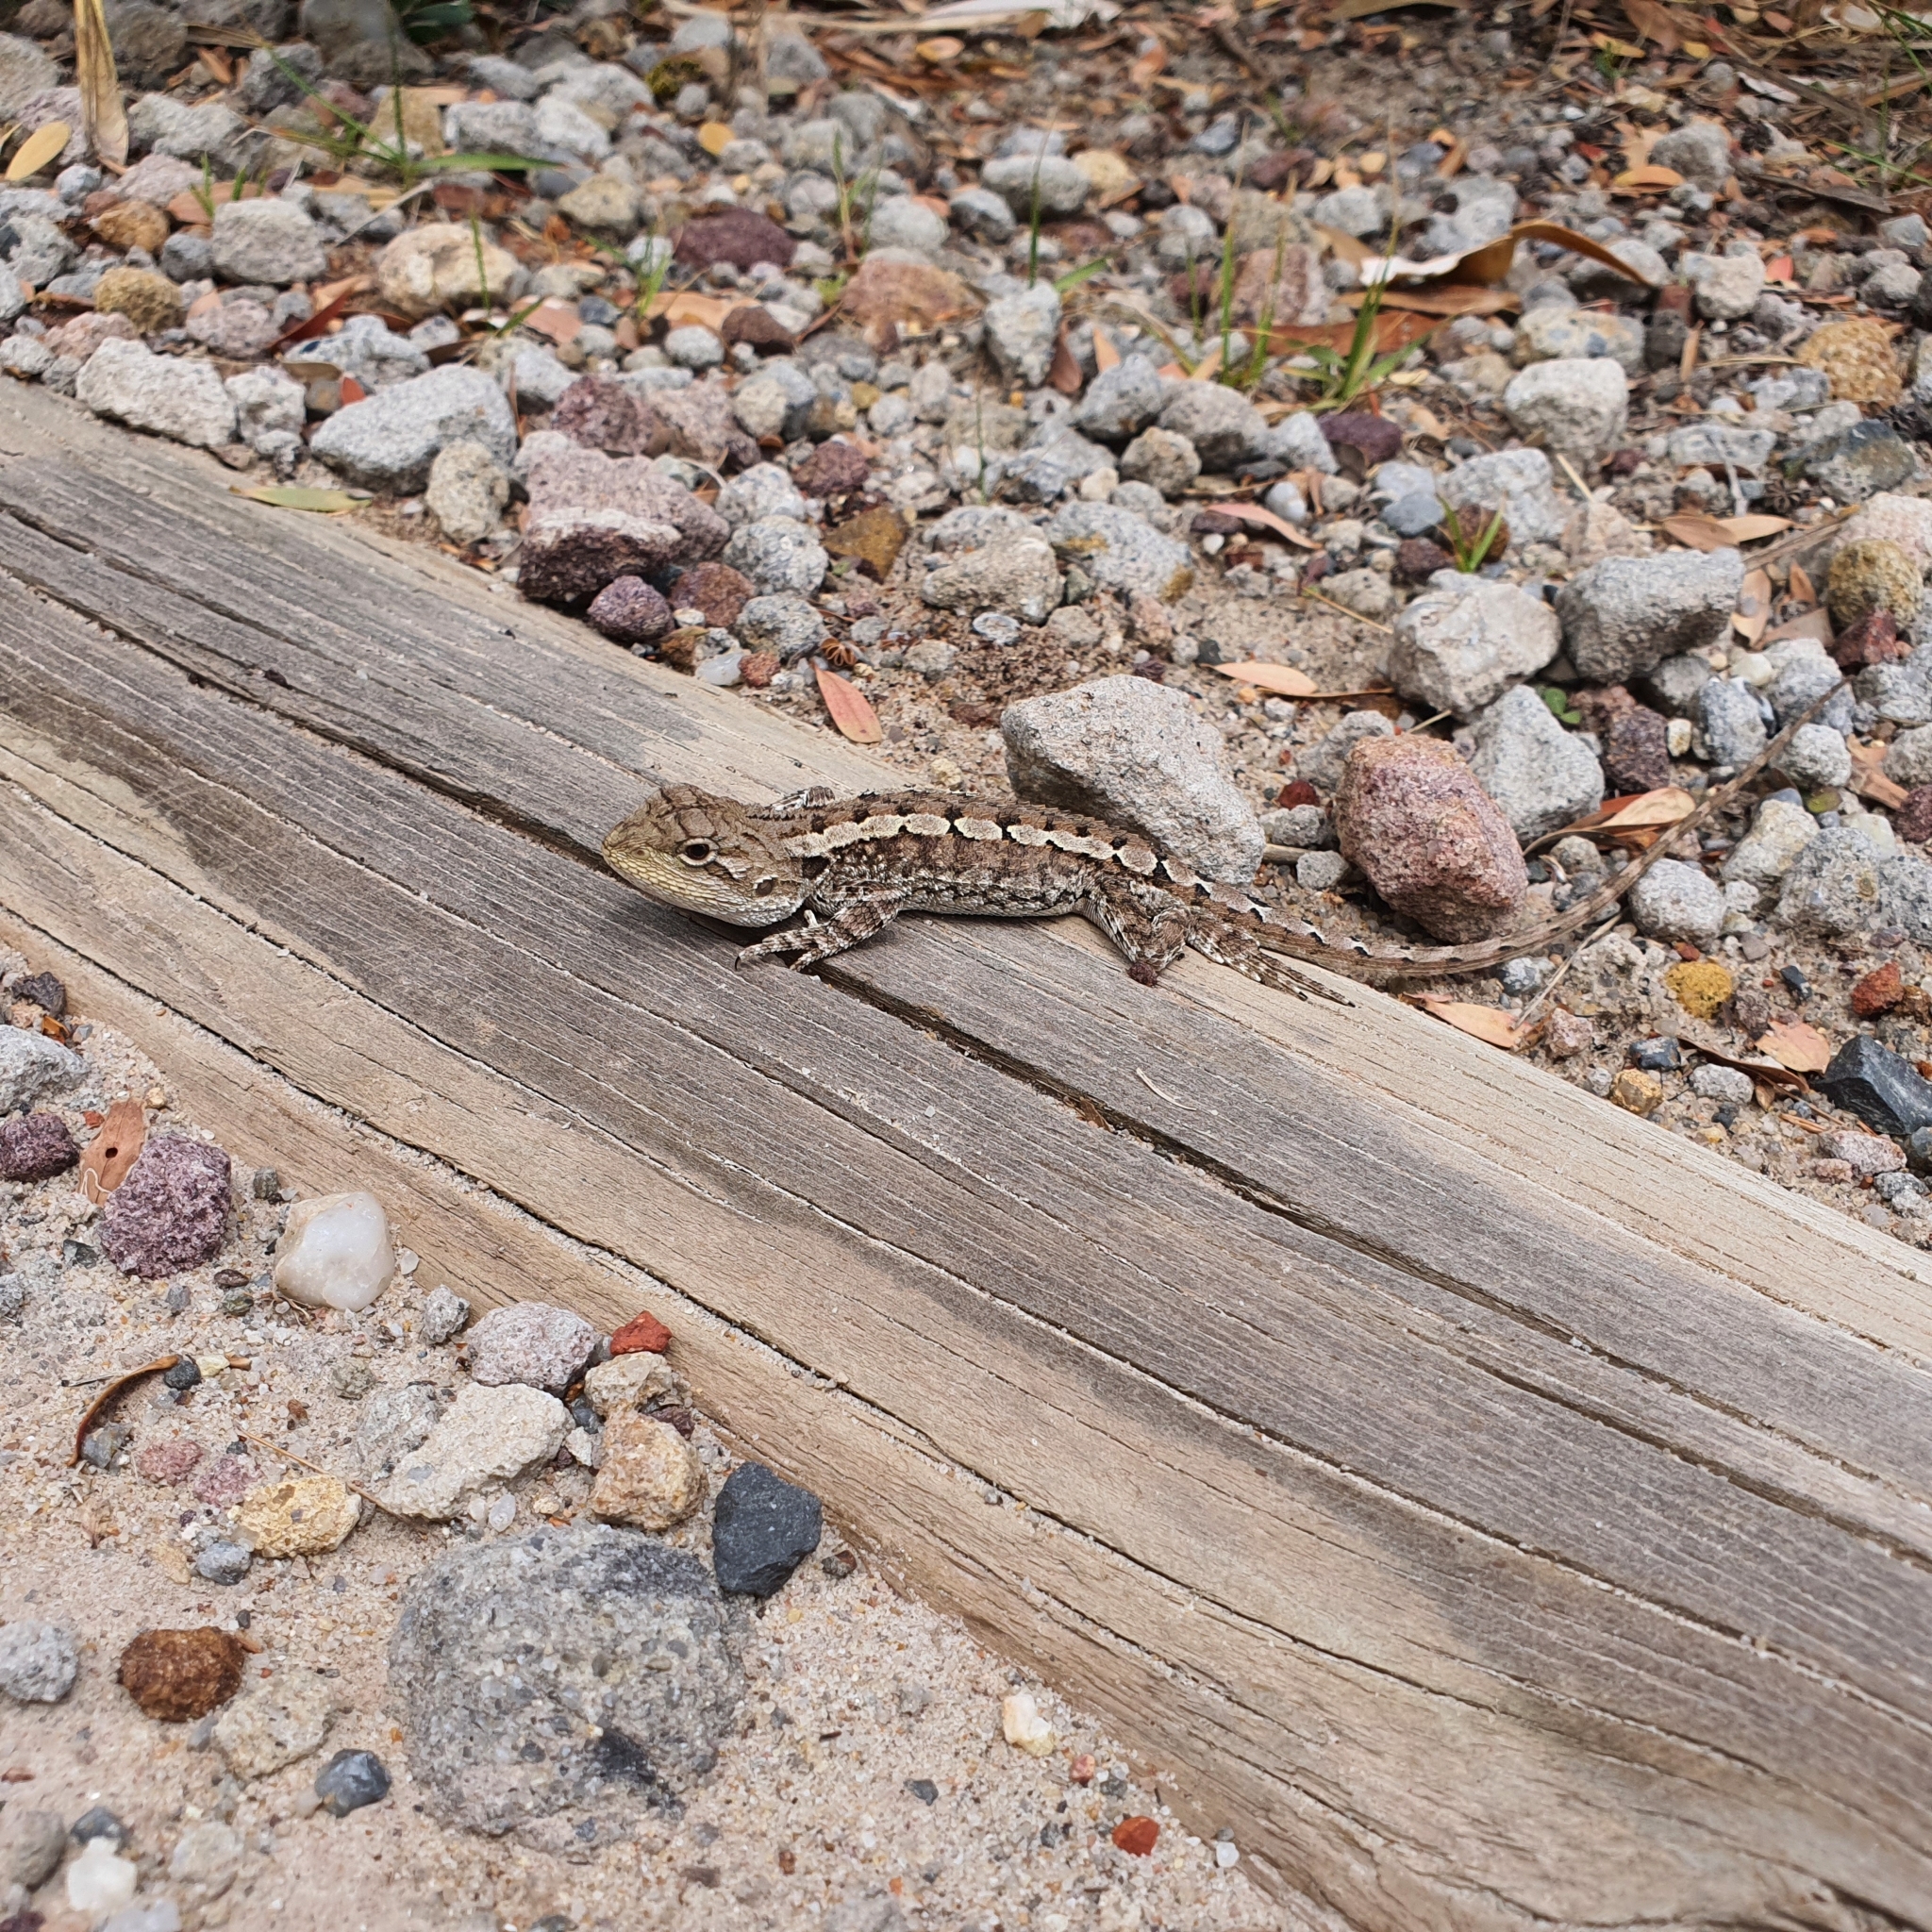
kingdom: Animalia
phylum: Chordata
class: Squamata
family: Agamidae
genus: Amphibolurus
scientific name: Amphibolurus muricatus
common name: Jacky lizard
